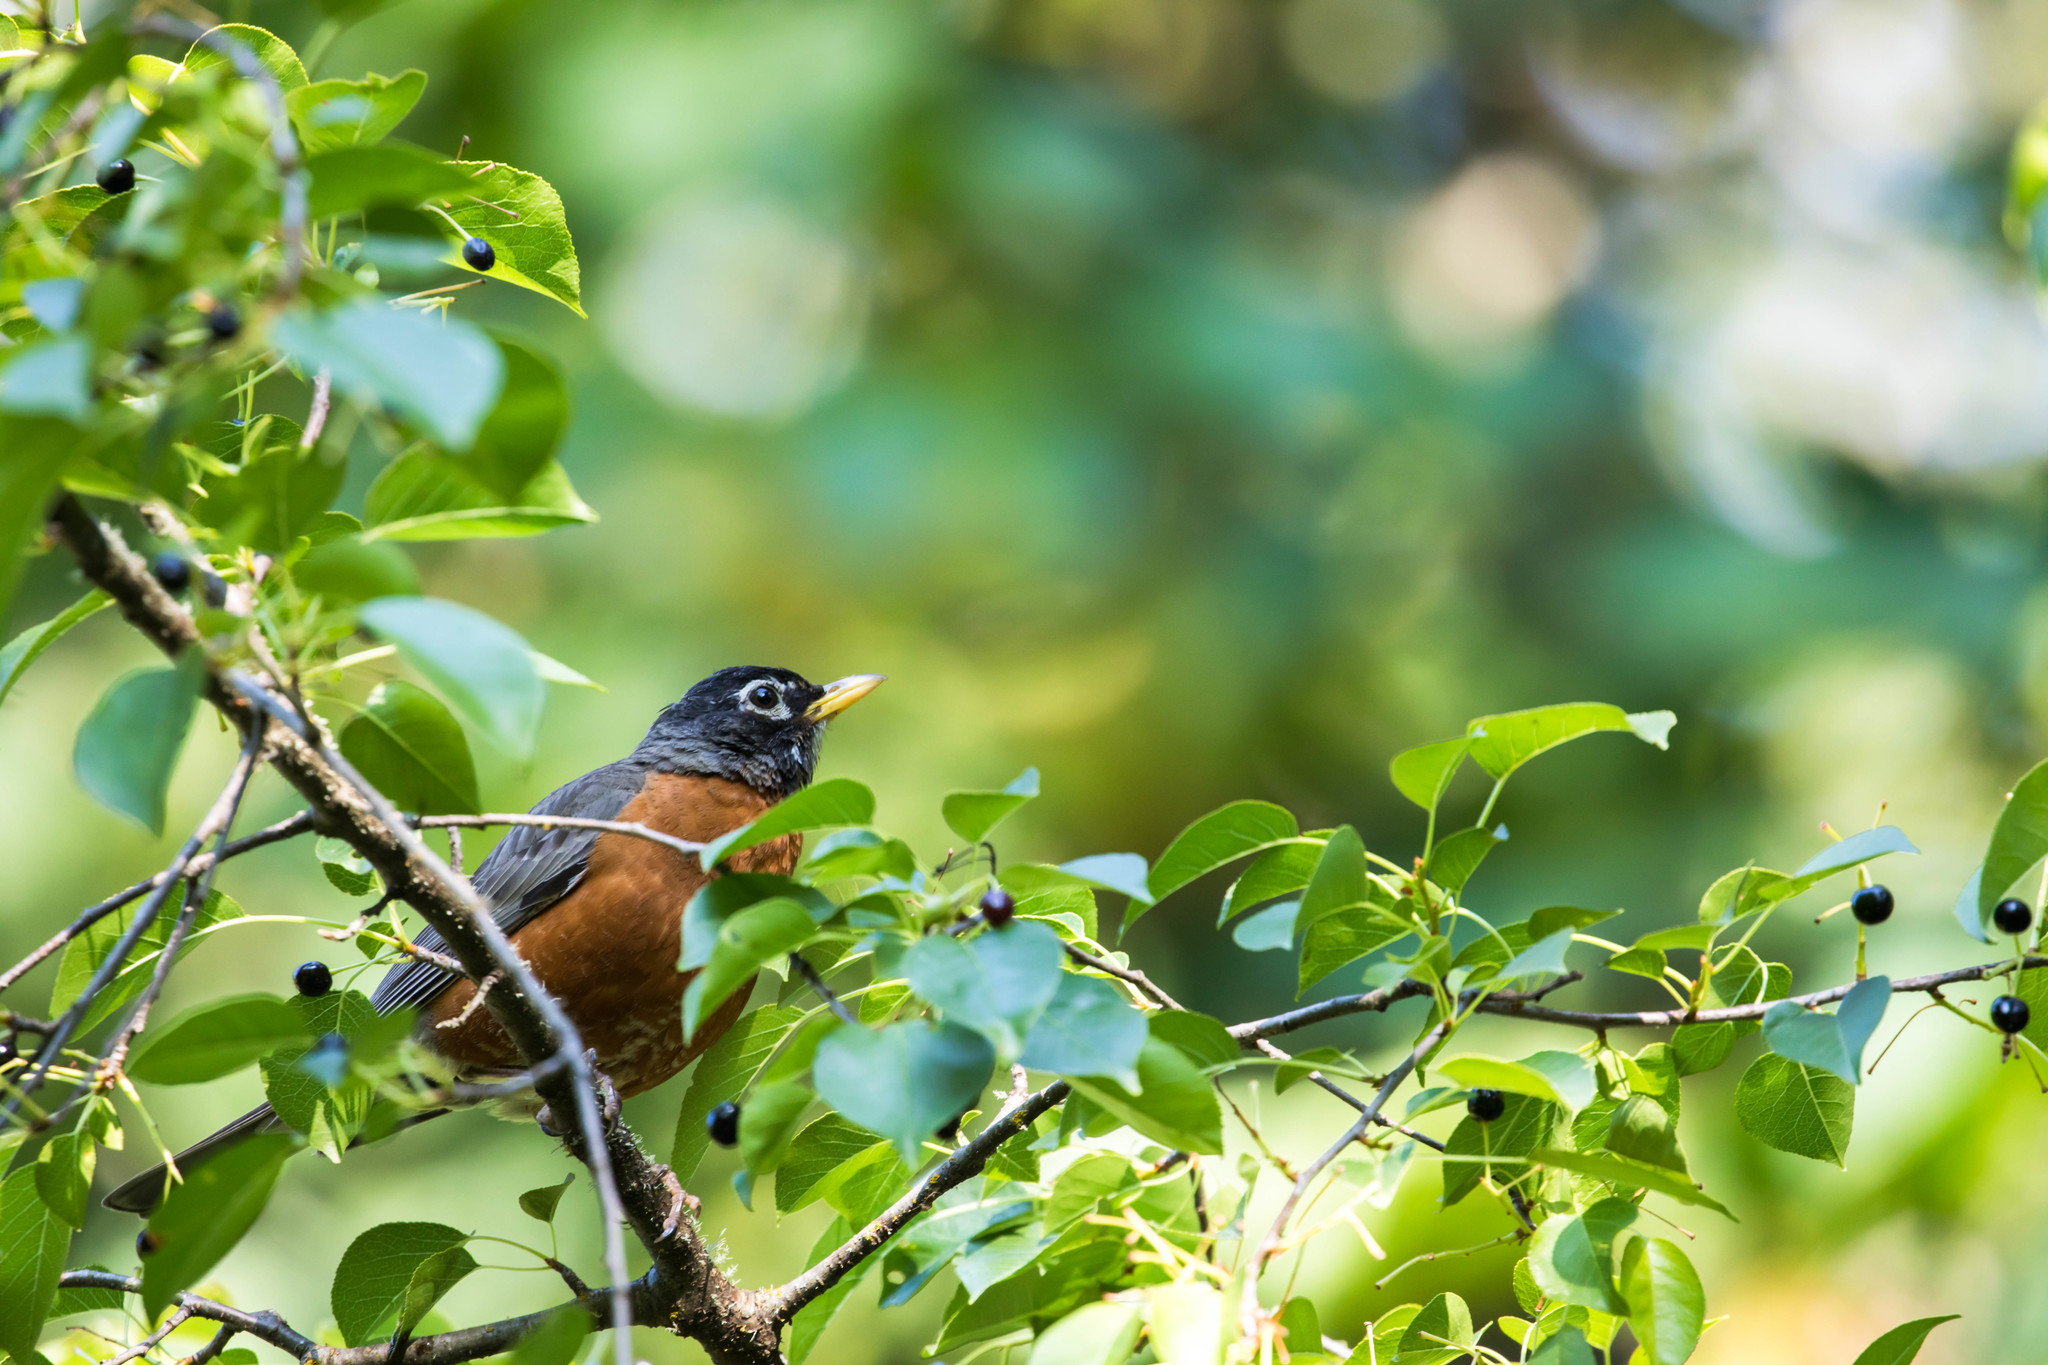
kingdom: Animalia
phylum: Chordata
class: Aves
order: Passeriformes
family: Turdidae
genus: Turdus
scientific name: Turdus migratorius
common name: American robin
